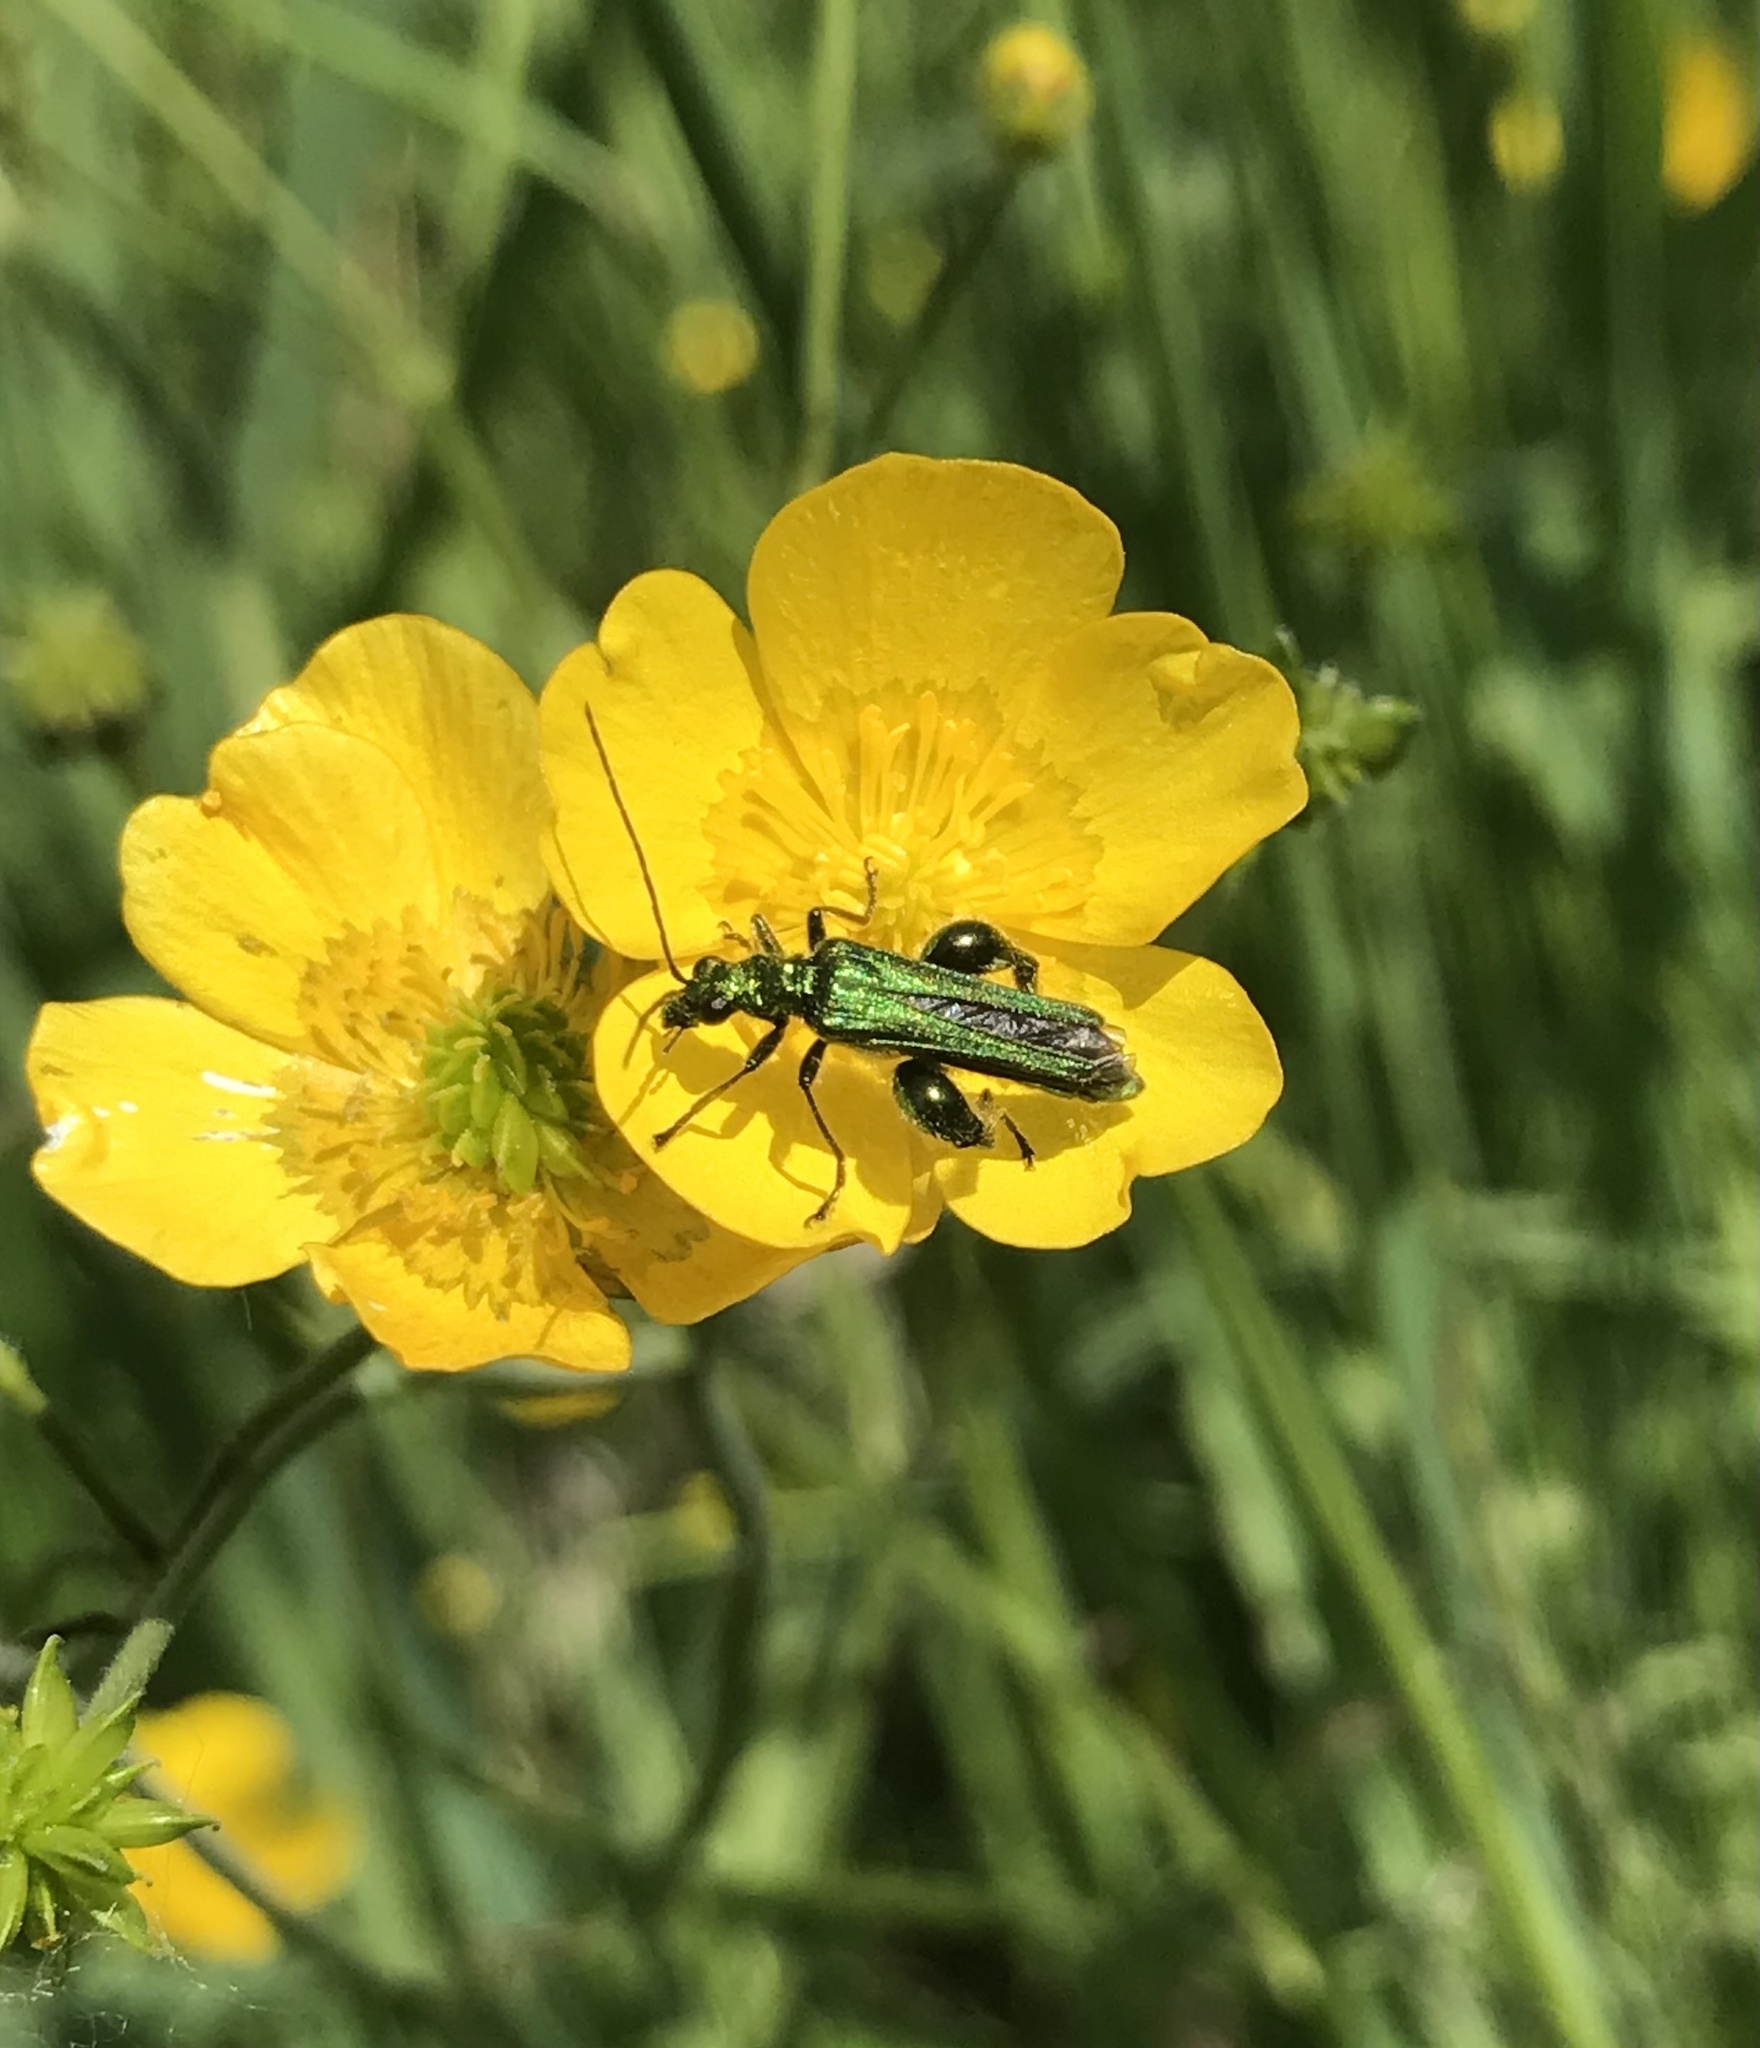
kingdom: Animalia
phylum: Arthropoda
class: Insecta
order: Coleoptera
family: Oedemeridae
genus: Oedemera
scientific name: Oedemera nobilis
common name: Swollen-thighed beetle
